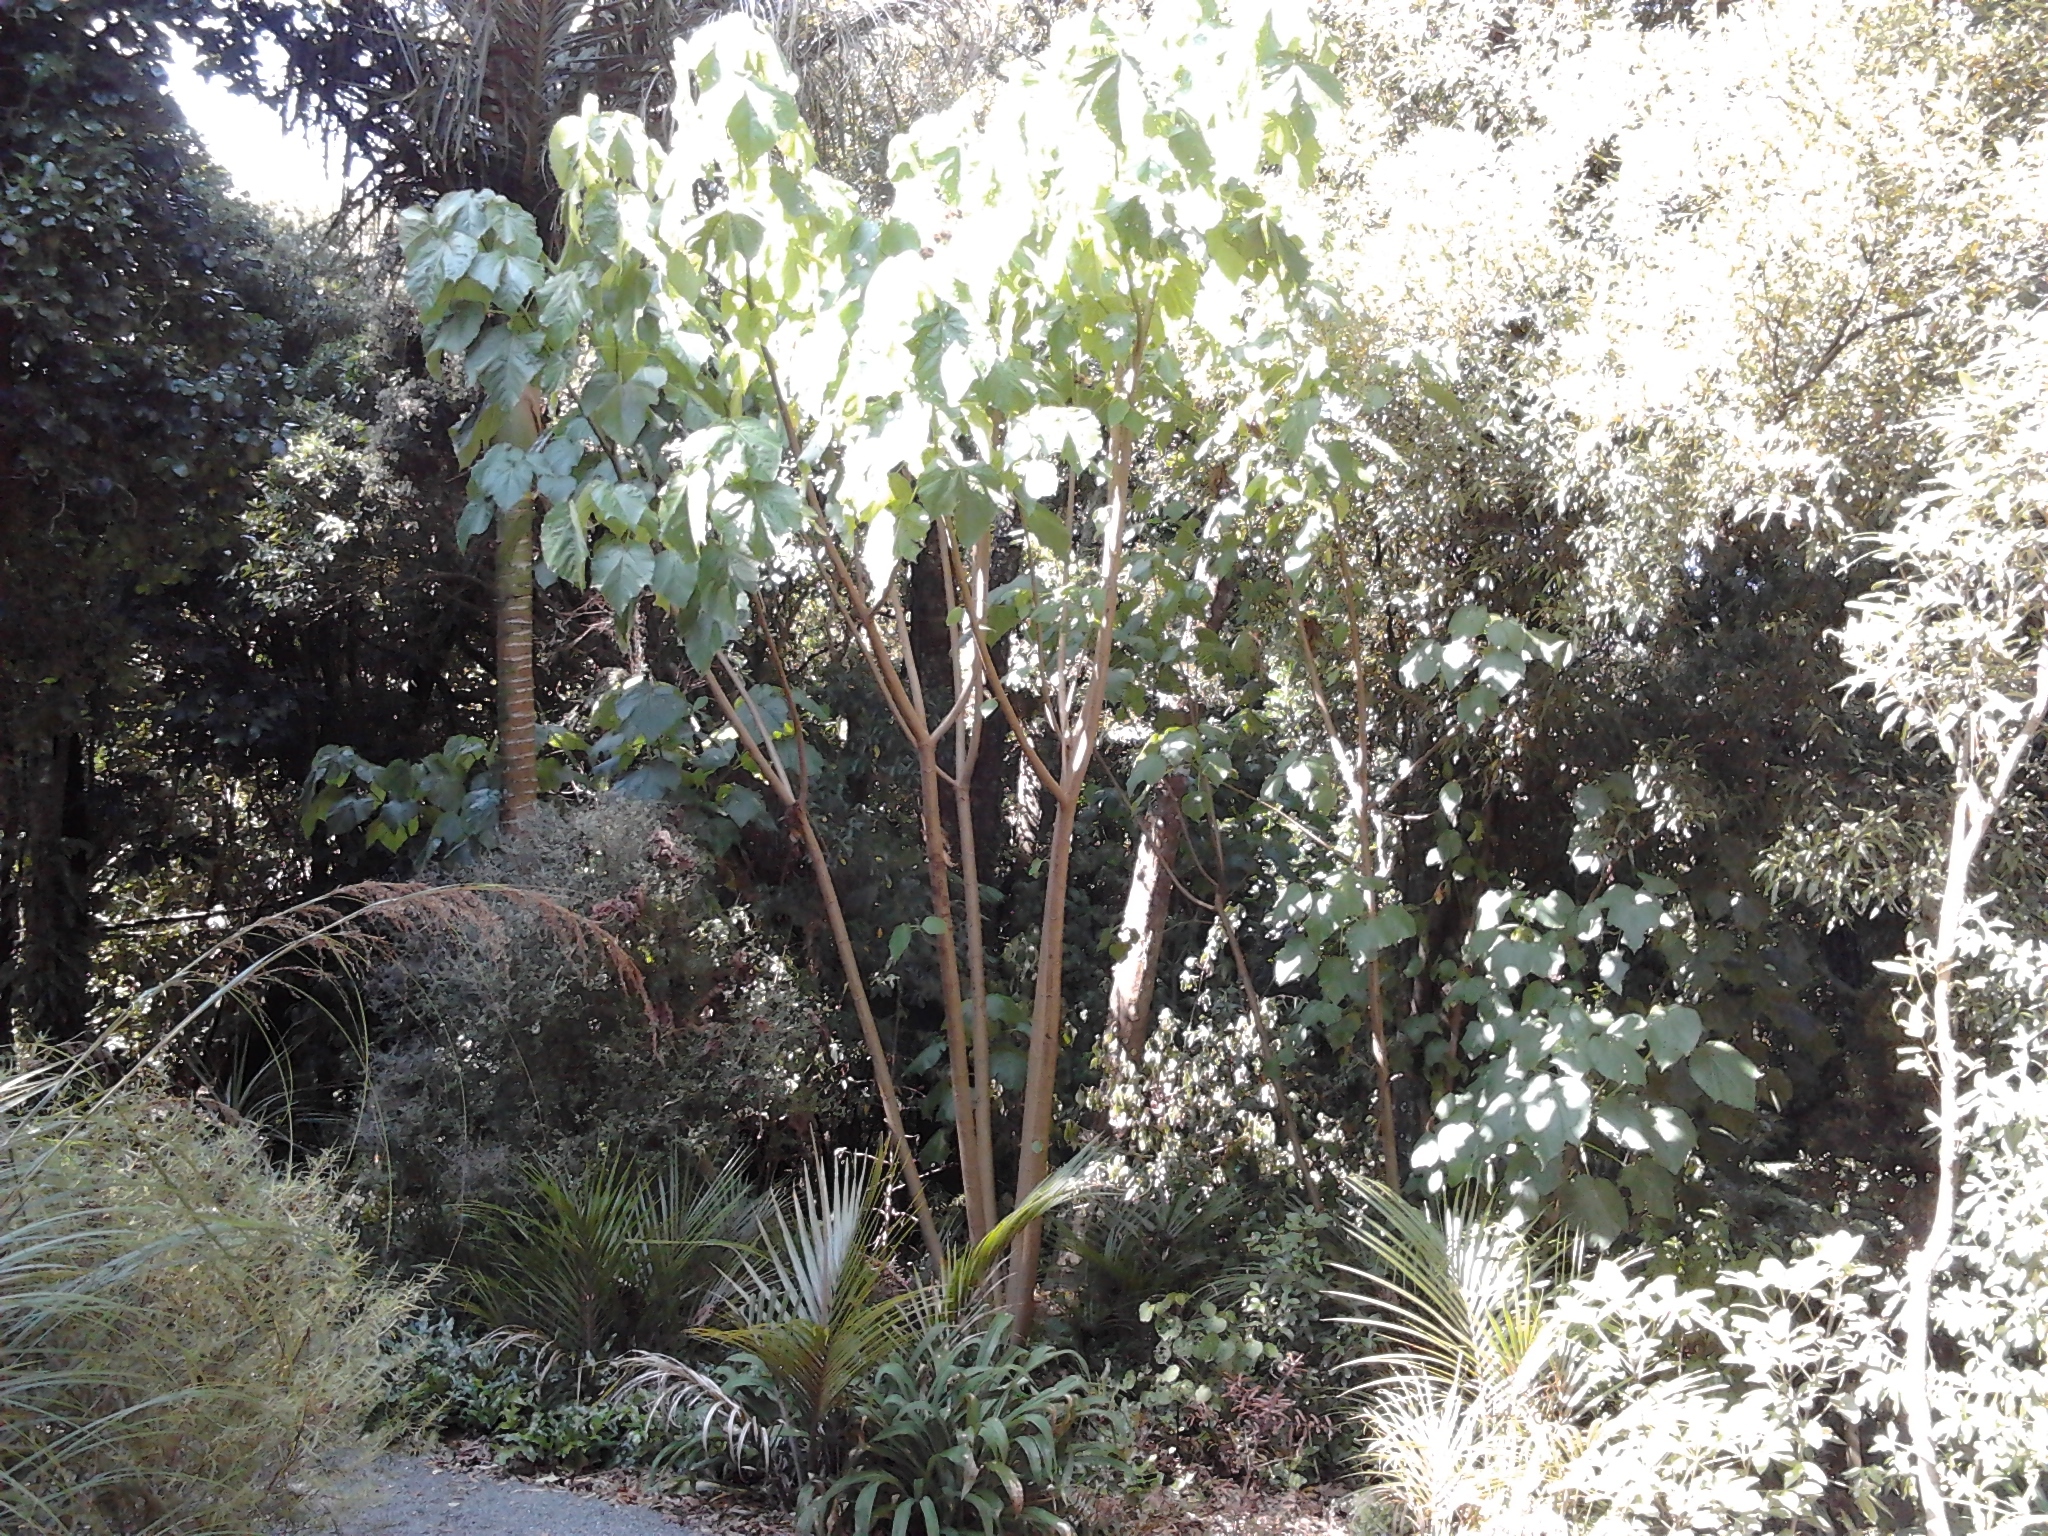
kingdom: Plantae
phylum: Tracheophyta
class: Magnoliopsida
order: Malvales
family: Malvaceae
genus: Entelea
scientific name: Entelea arborescens
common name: New zealand-mulberry
